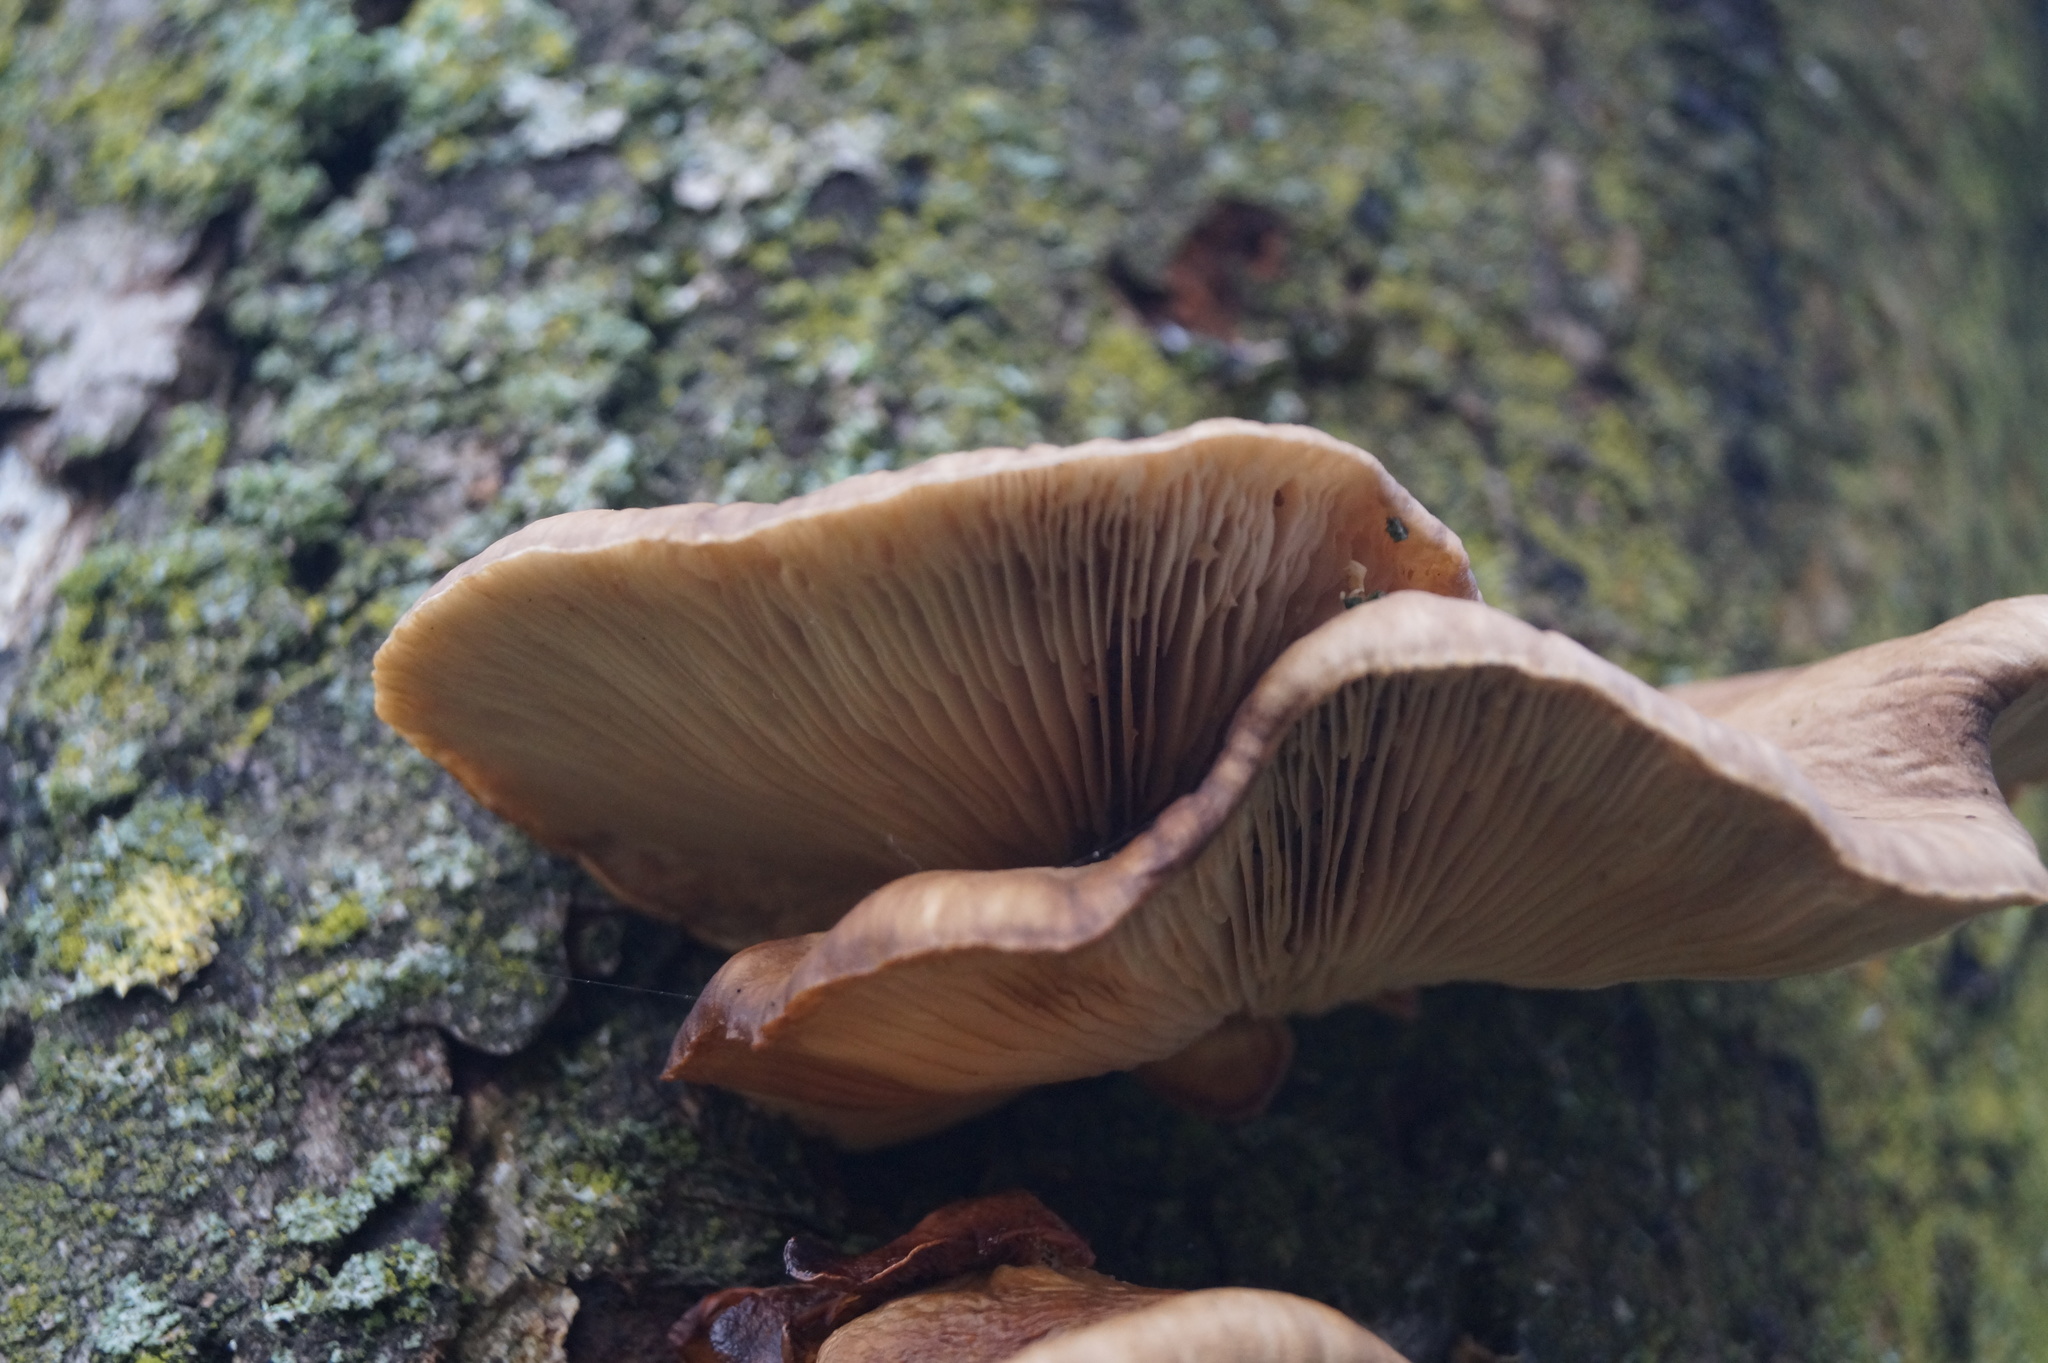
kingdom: Fungi
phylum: Basidiomycota
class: Agaricomycetes
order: Agaricales
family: Pleurotaceae
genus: Pleurotus
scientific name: Pleurotus ostreatus
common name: Oyster mushroom
